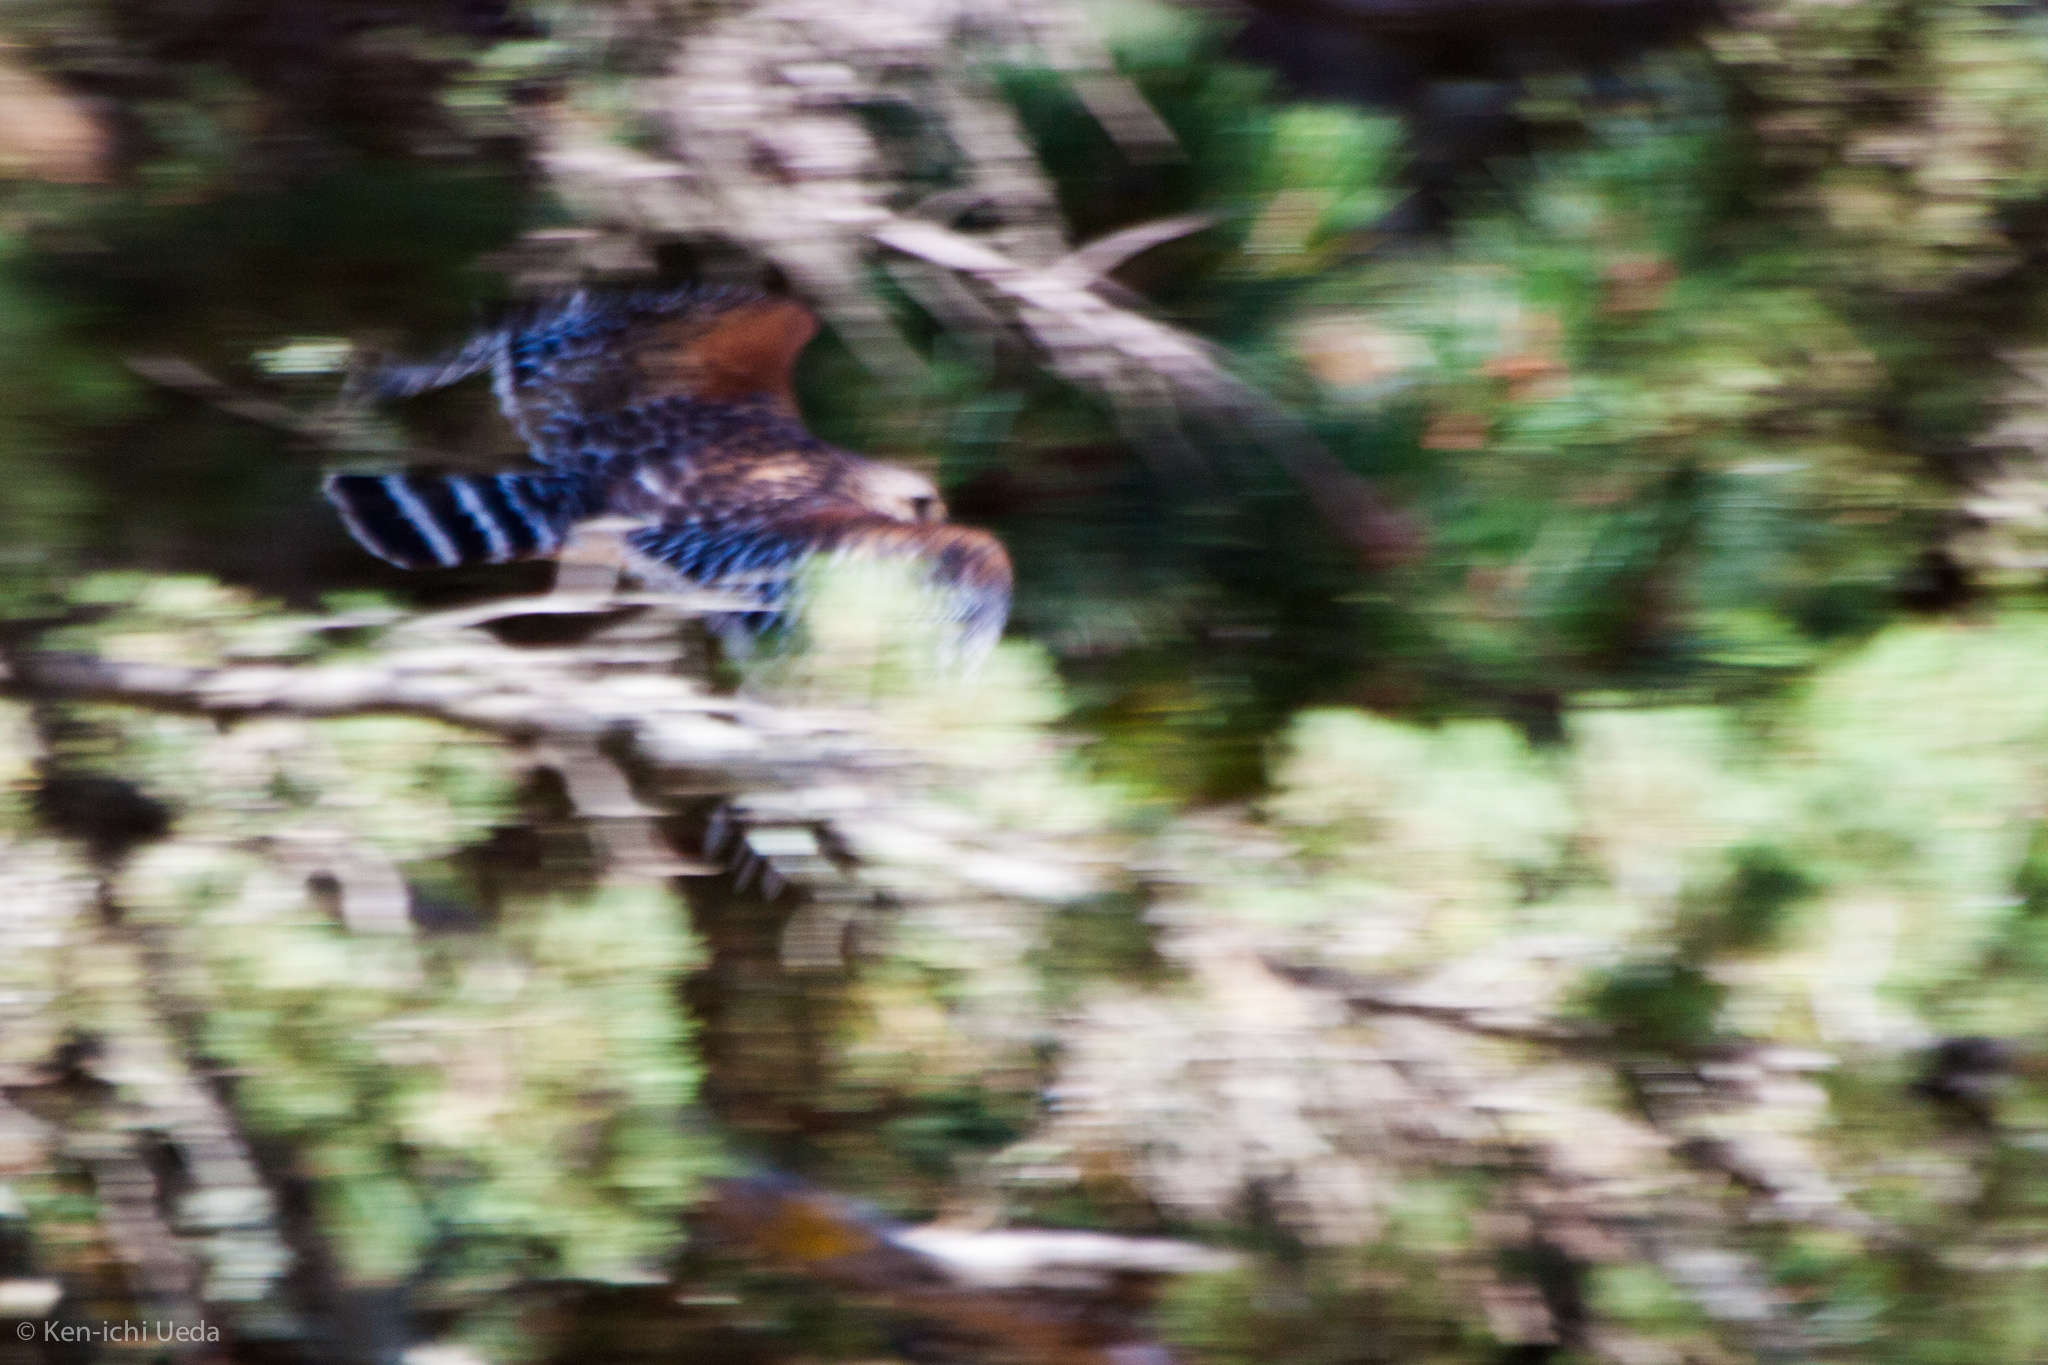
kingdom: Animalia
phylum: Chordata
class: Aves
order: Accipitriformes
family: Accipitridae
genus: Buteo
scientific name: Buteo lineatus
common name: Red-shouldered hawk
